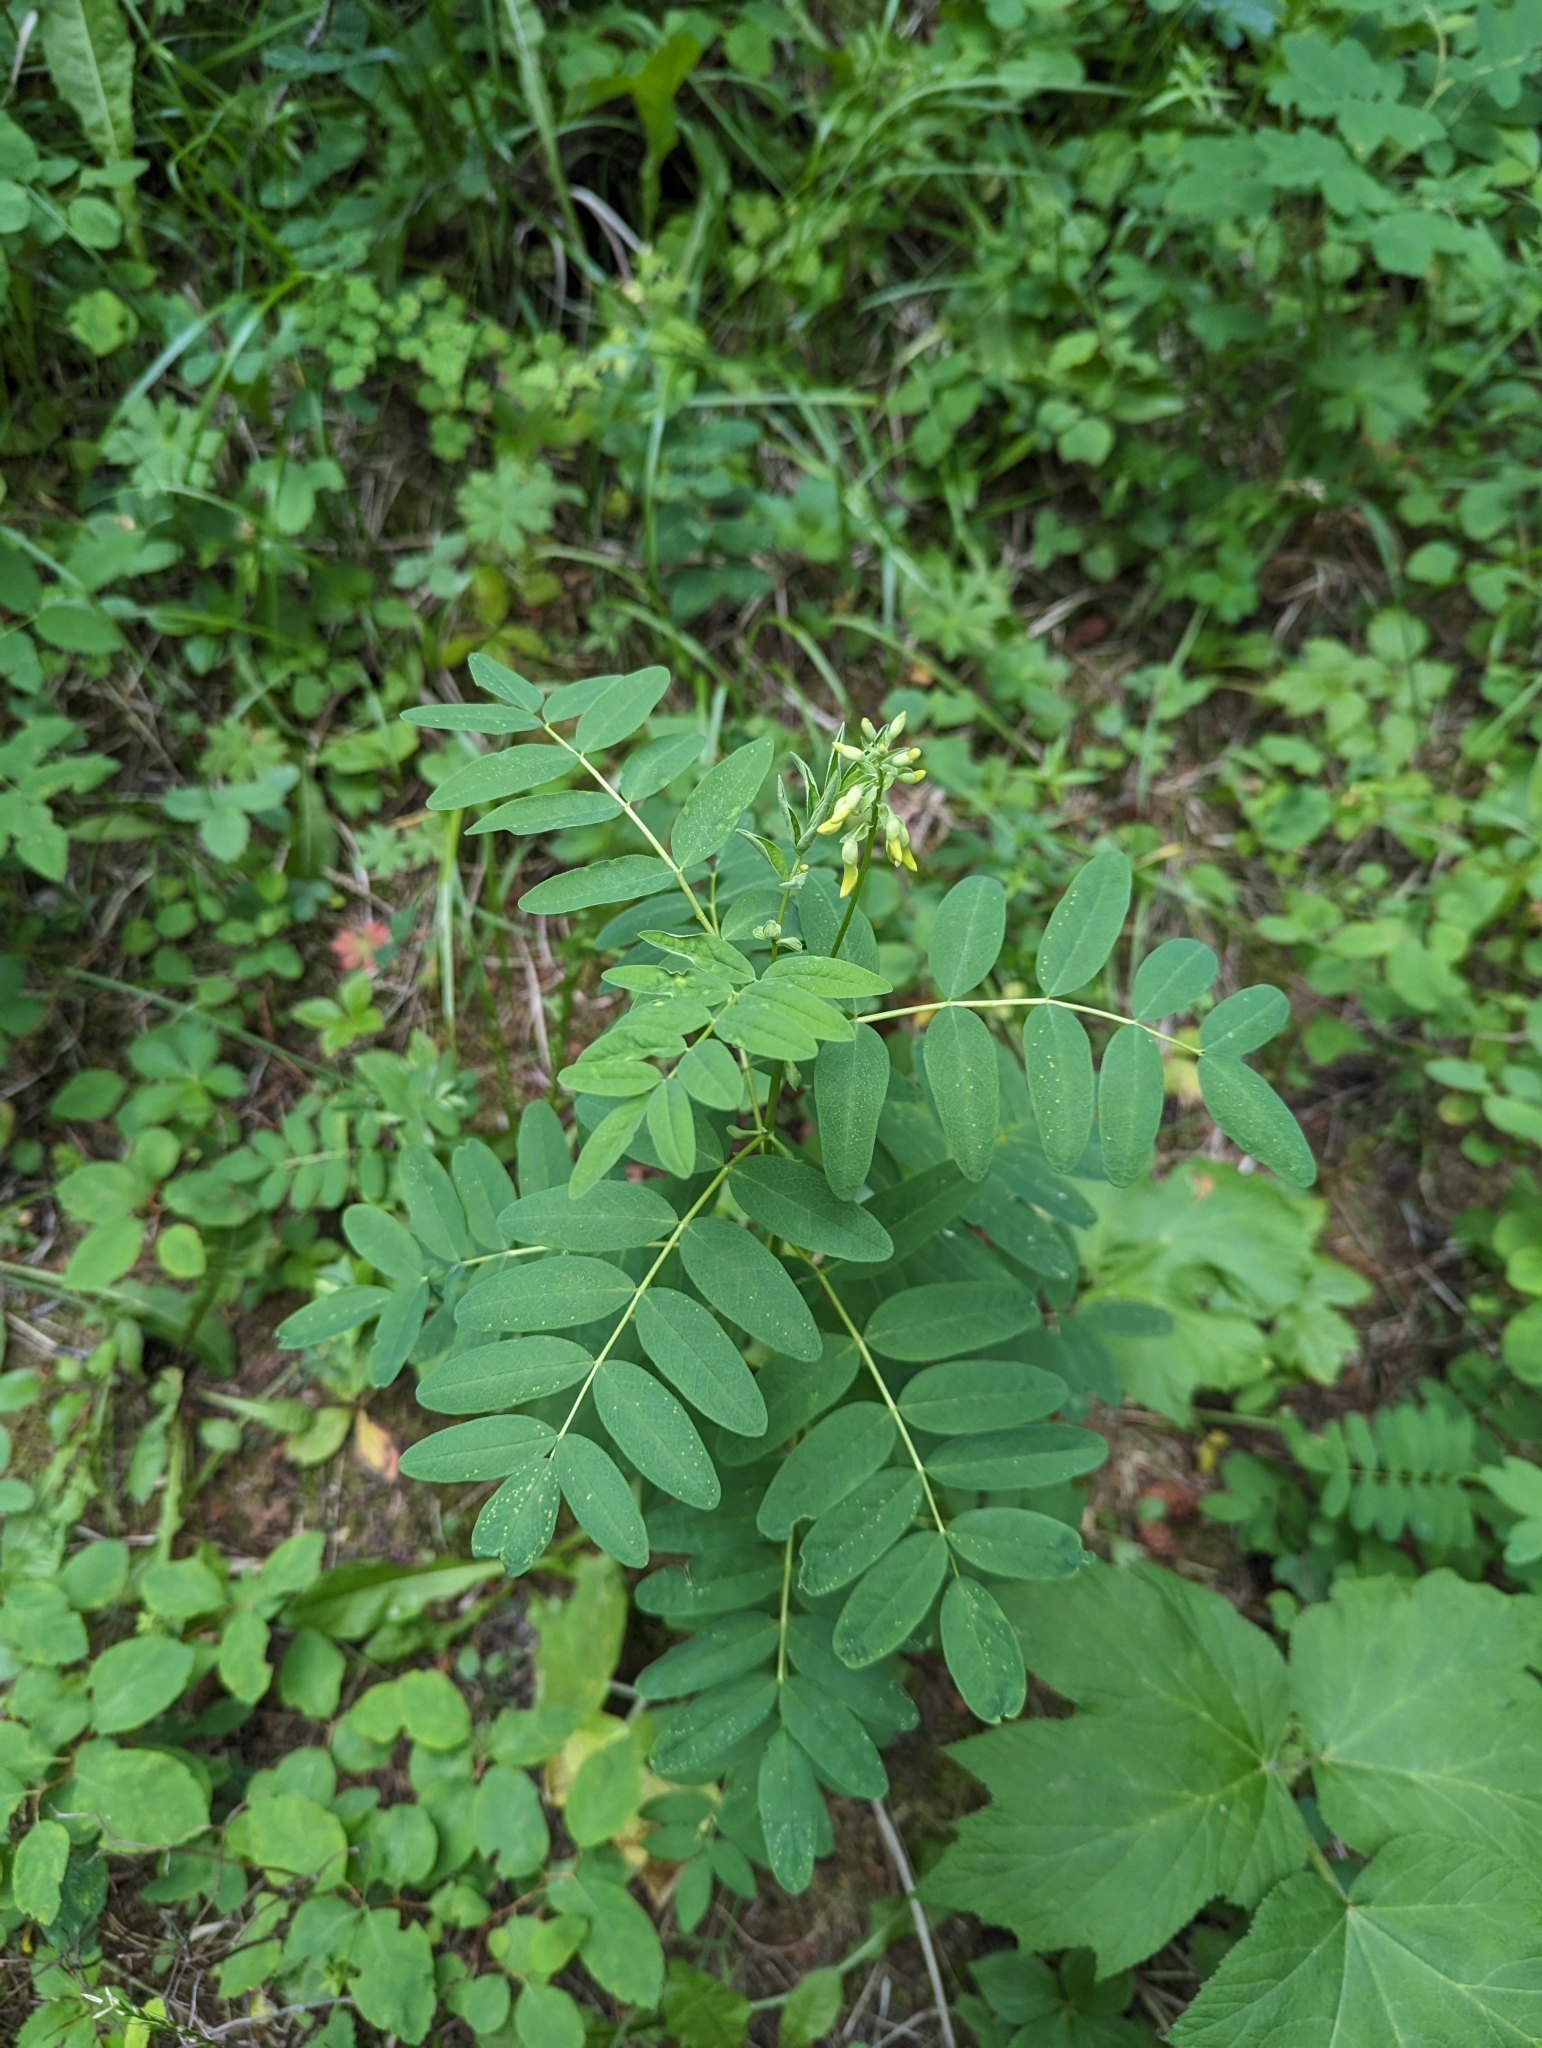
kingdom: Plantae
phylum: Tracheophyta
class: Magnoliopsida
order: Fabales
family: Fabaceae
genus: Astragalus
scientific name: Astragalus americanus
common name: American milk-vetch
